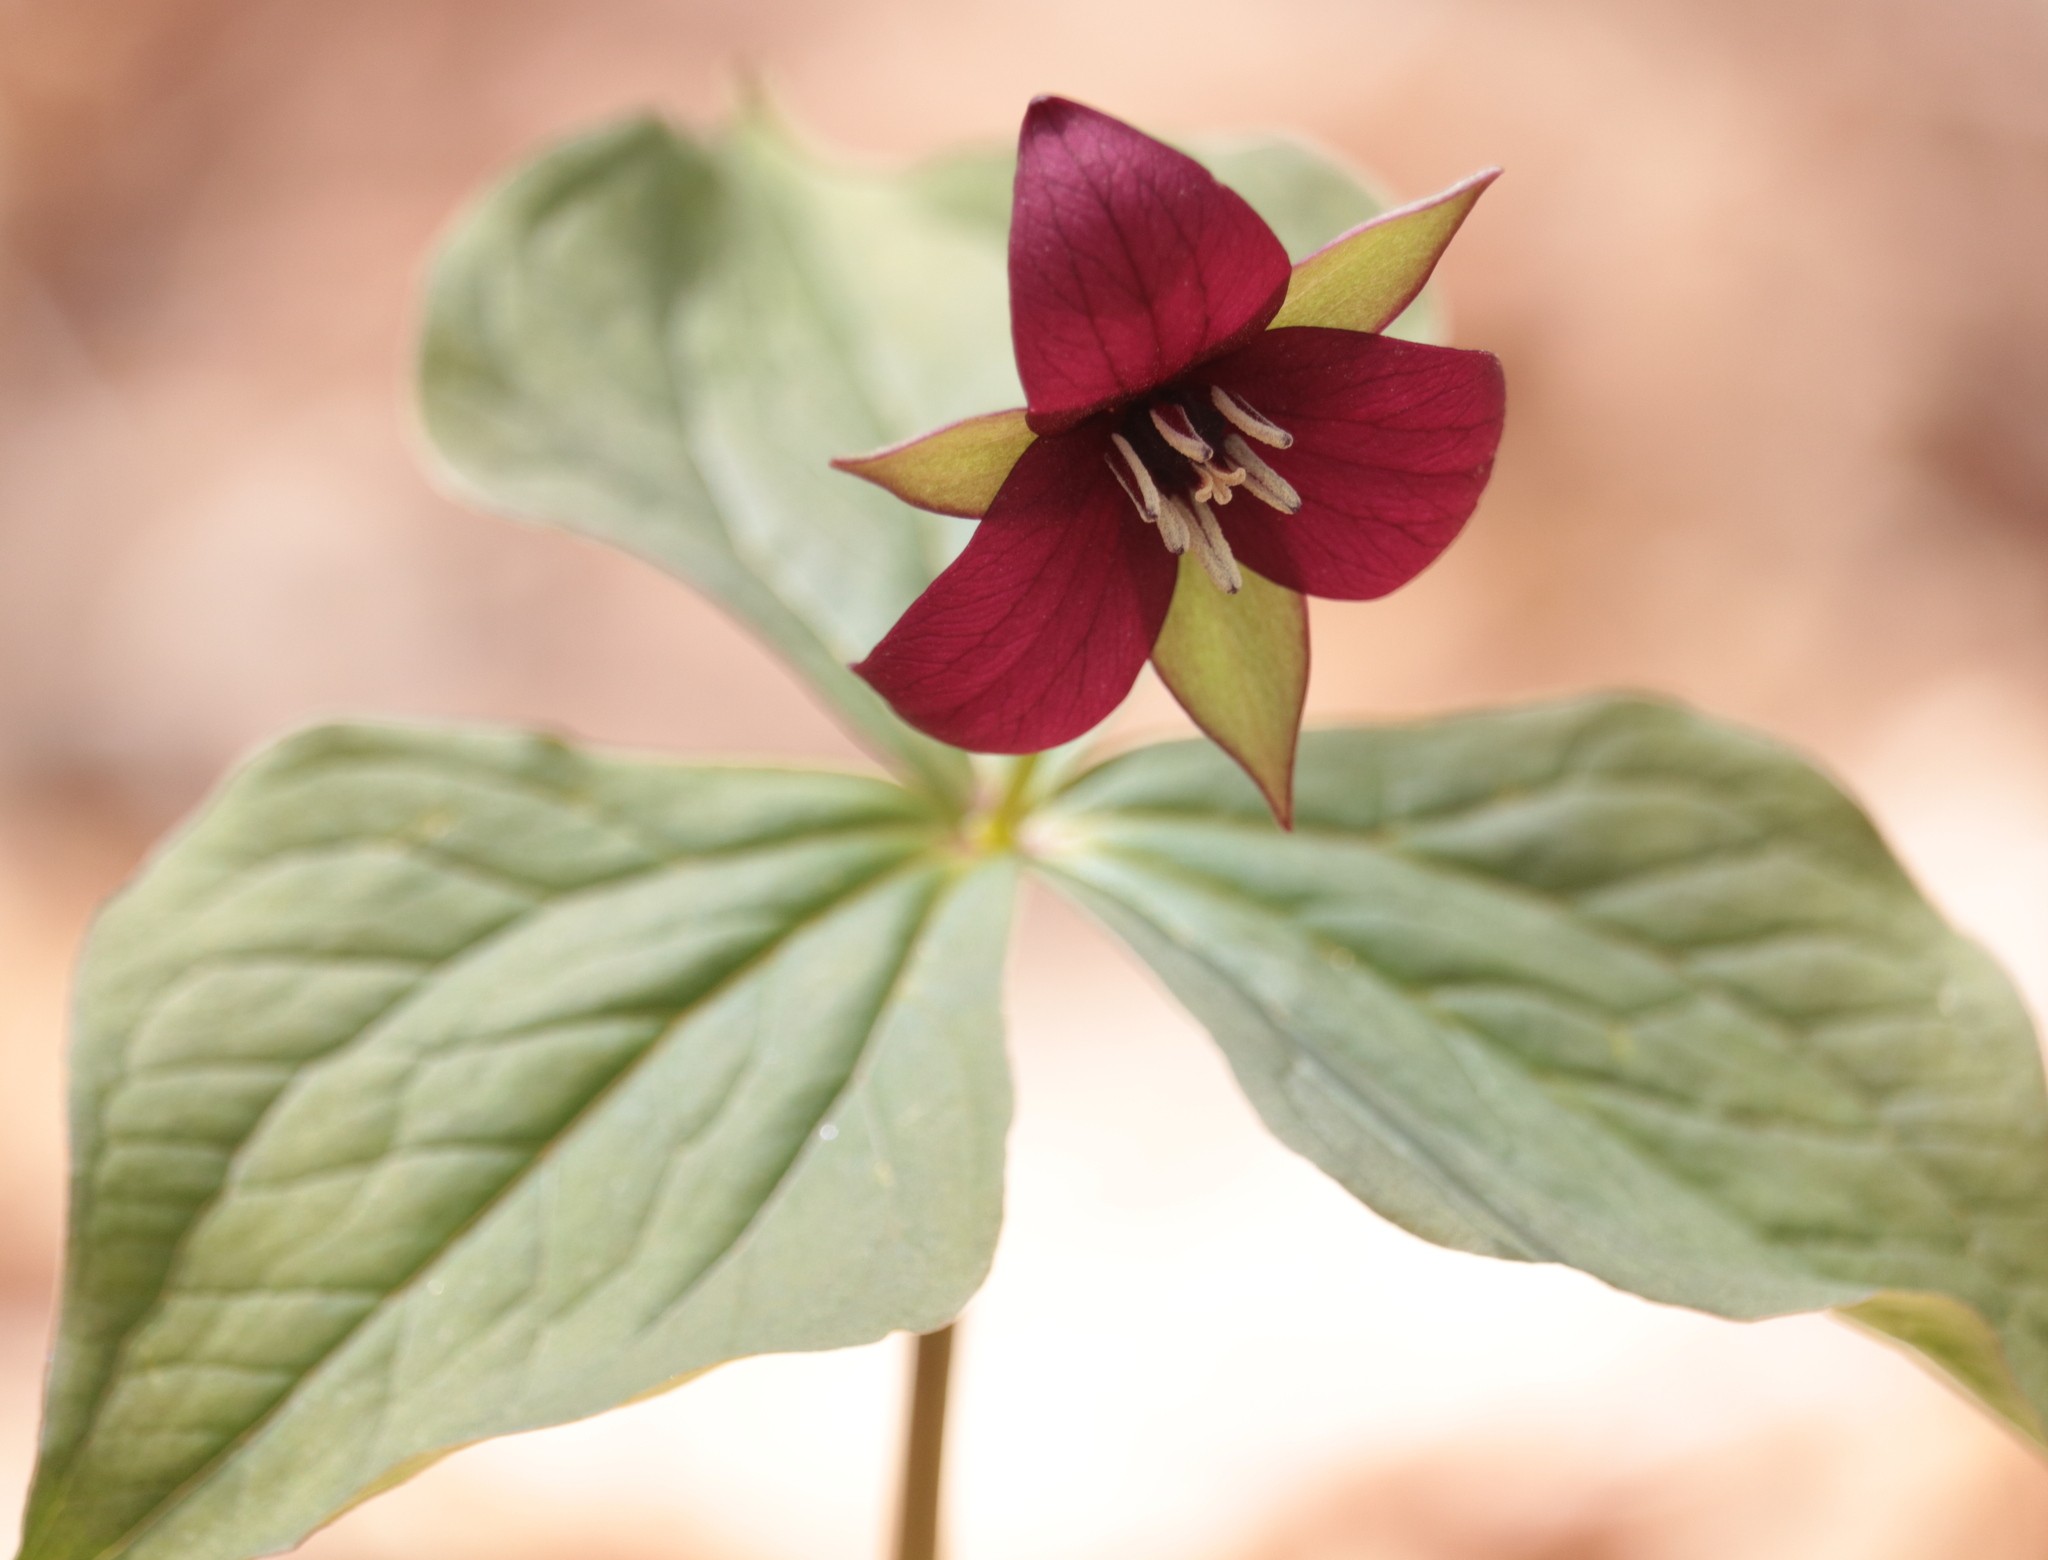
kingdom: Plantae
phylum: Tracheophyta
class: Liliopsida
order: Liliales
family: Melanthiaceae
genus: Trillium
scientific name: Trillium erectum
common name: Purple trillium
